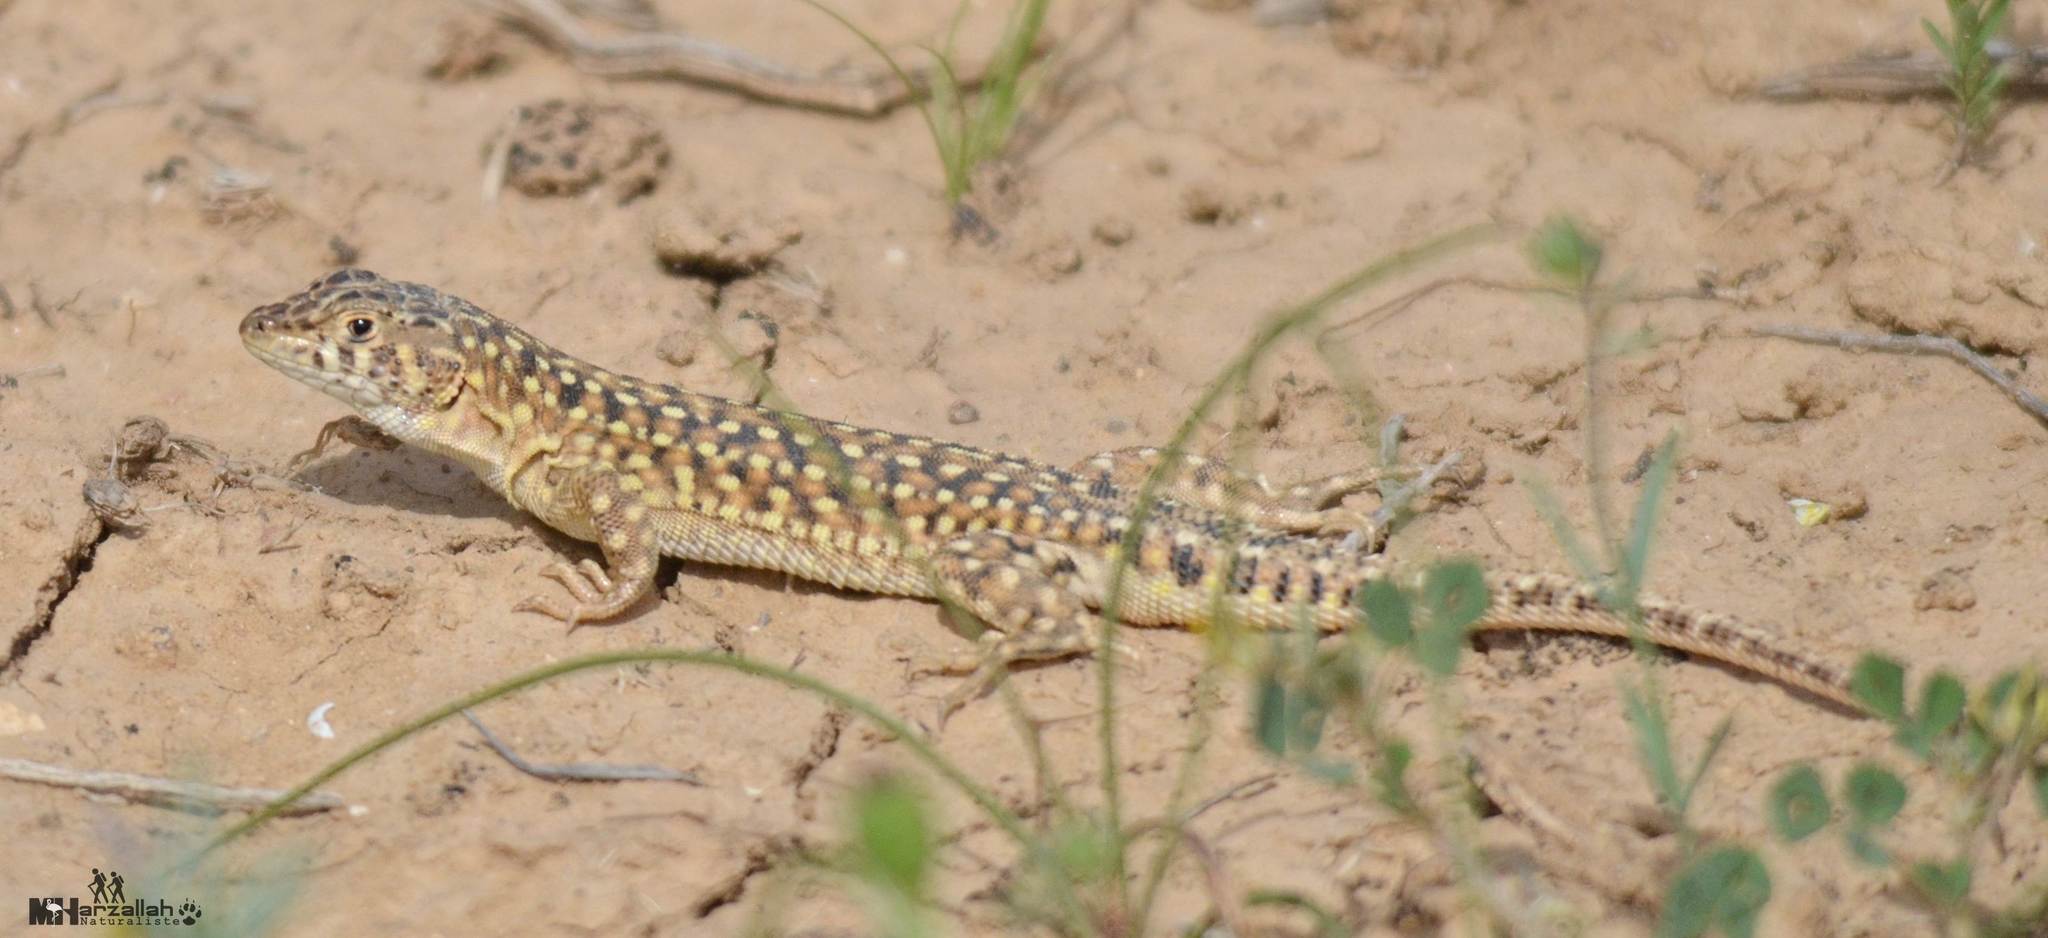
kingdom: Animalia
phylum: Chordata
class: Squamata
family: Lacertidae
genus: Acanthodactylus
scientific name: Acanthodactylus maculatus
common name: Spotted fringe-fingered lizard
